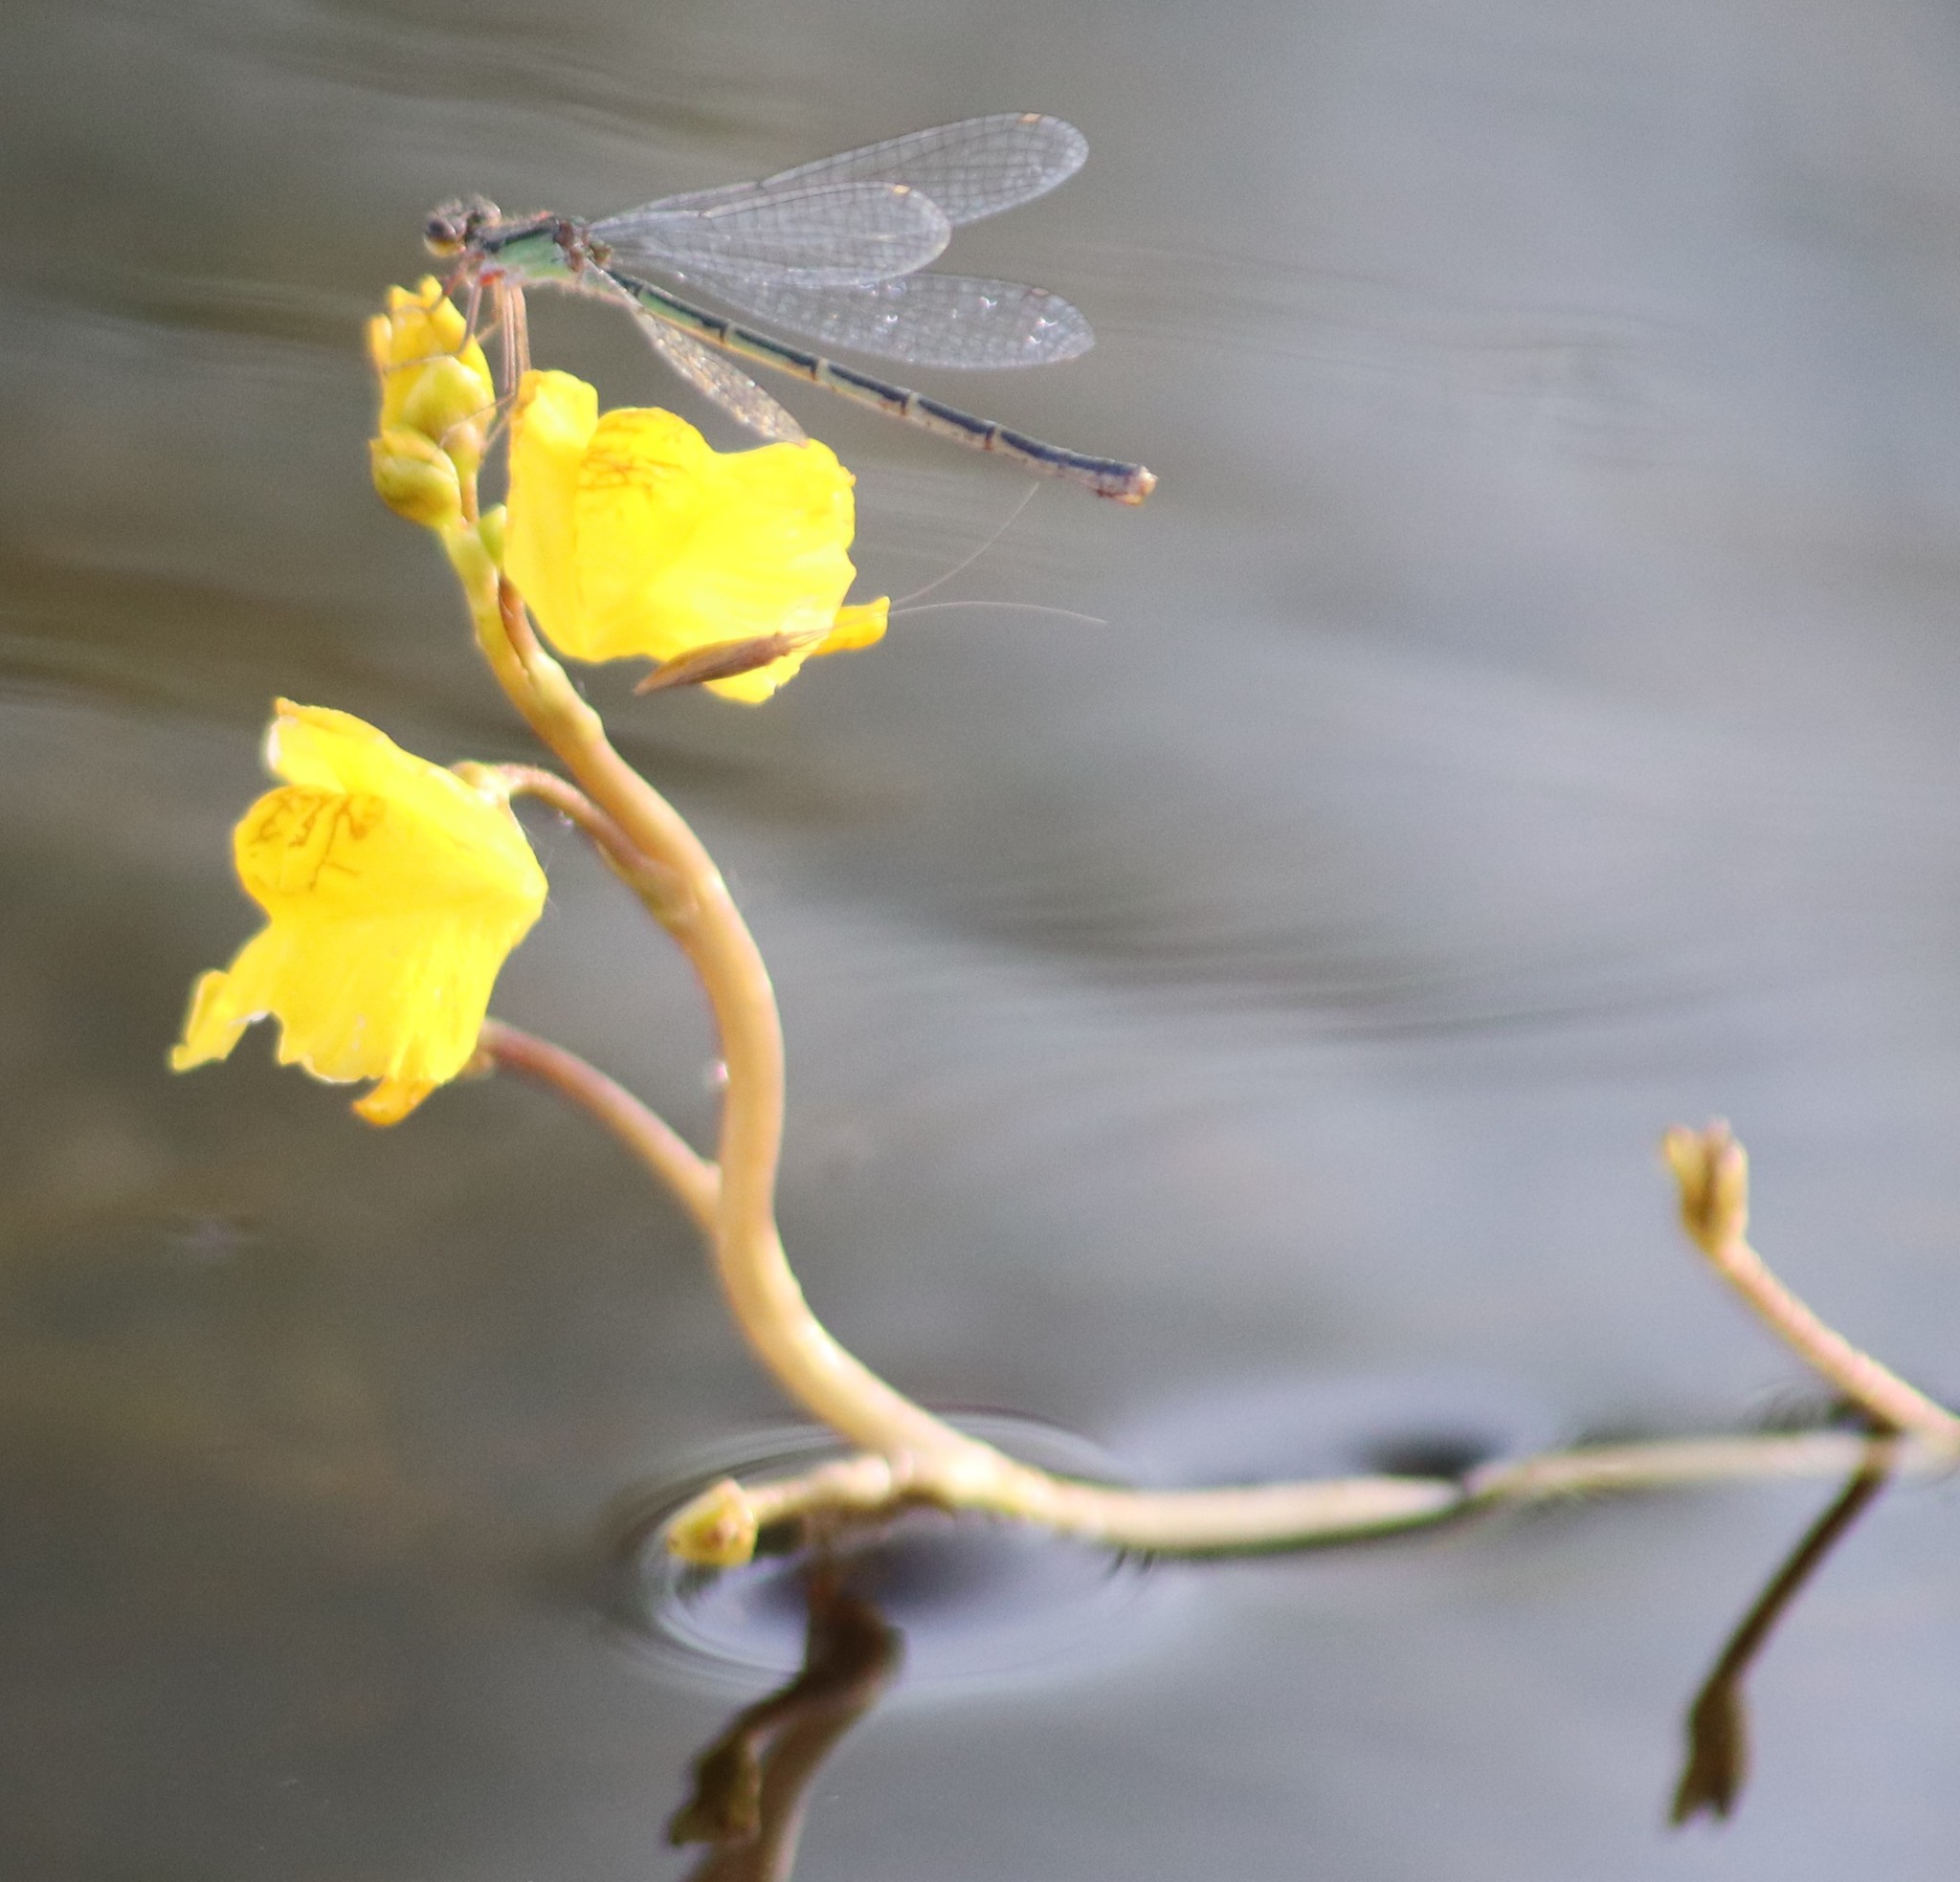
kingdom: Plantae
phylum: Tracheophyta
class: Magnoliopsida
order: Lamiales
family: Lentibulariaceae
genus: Utricularia
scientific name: Utricularia macrorhiza
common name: Common bladderwort
